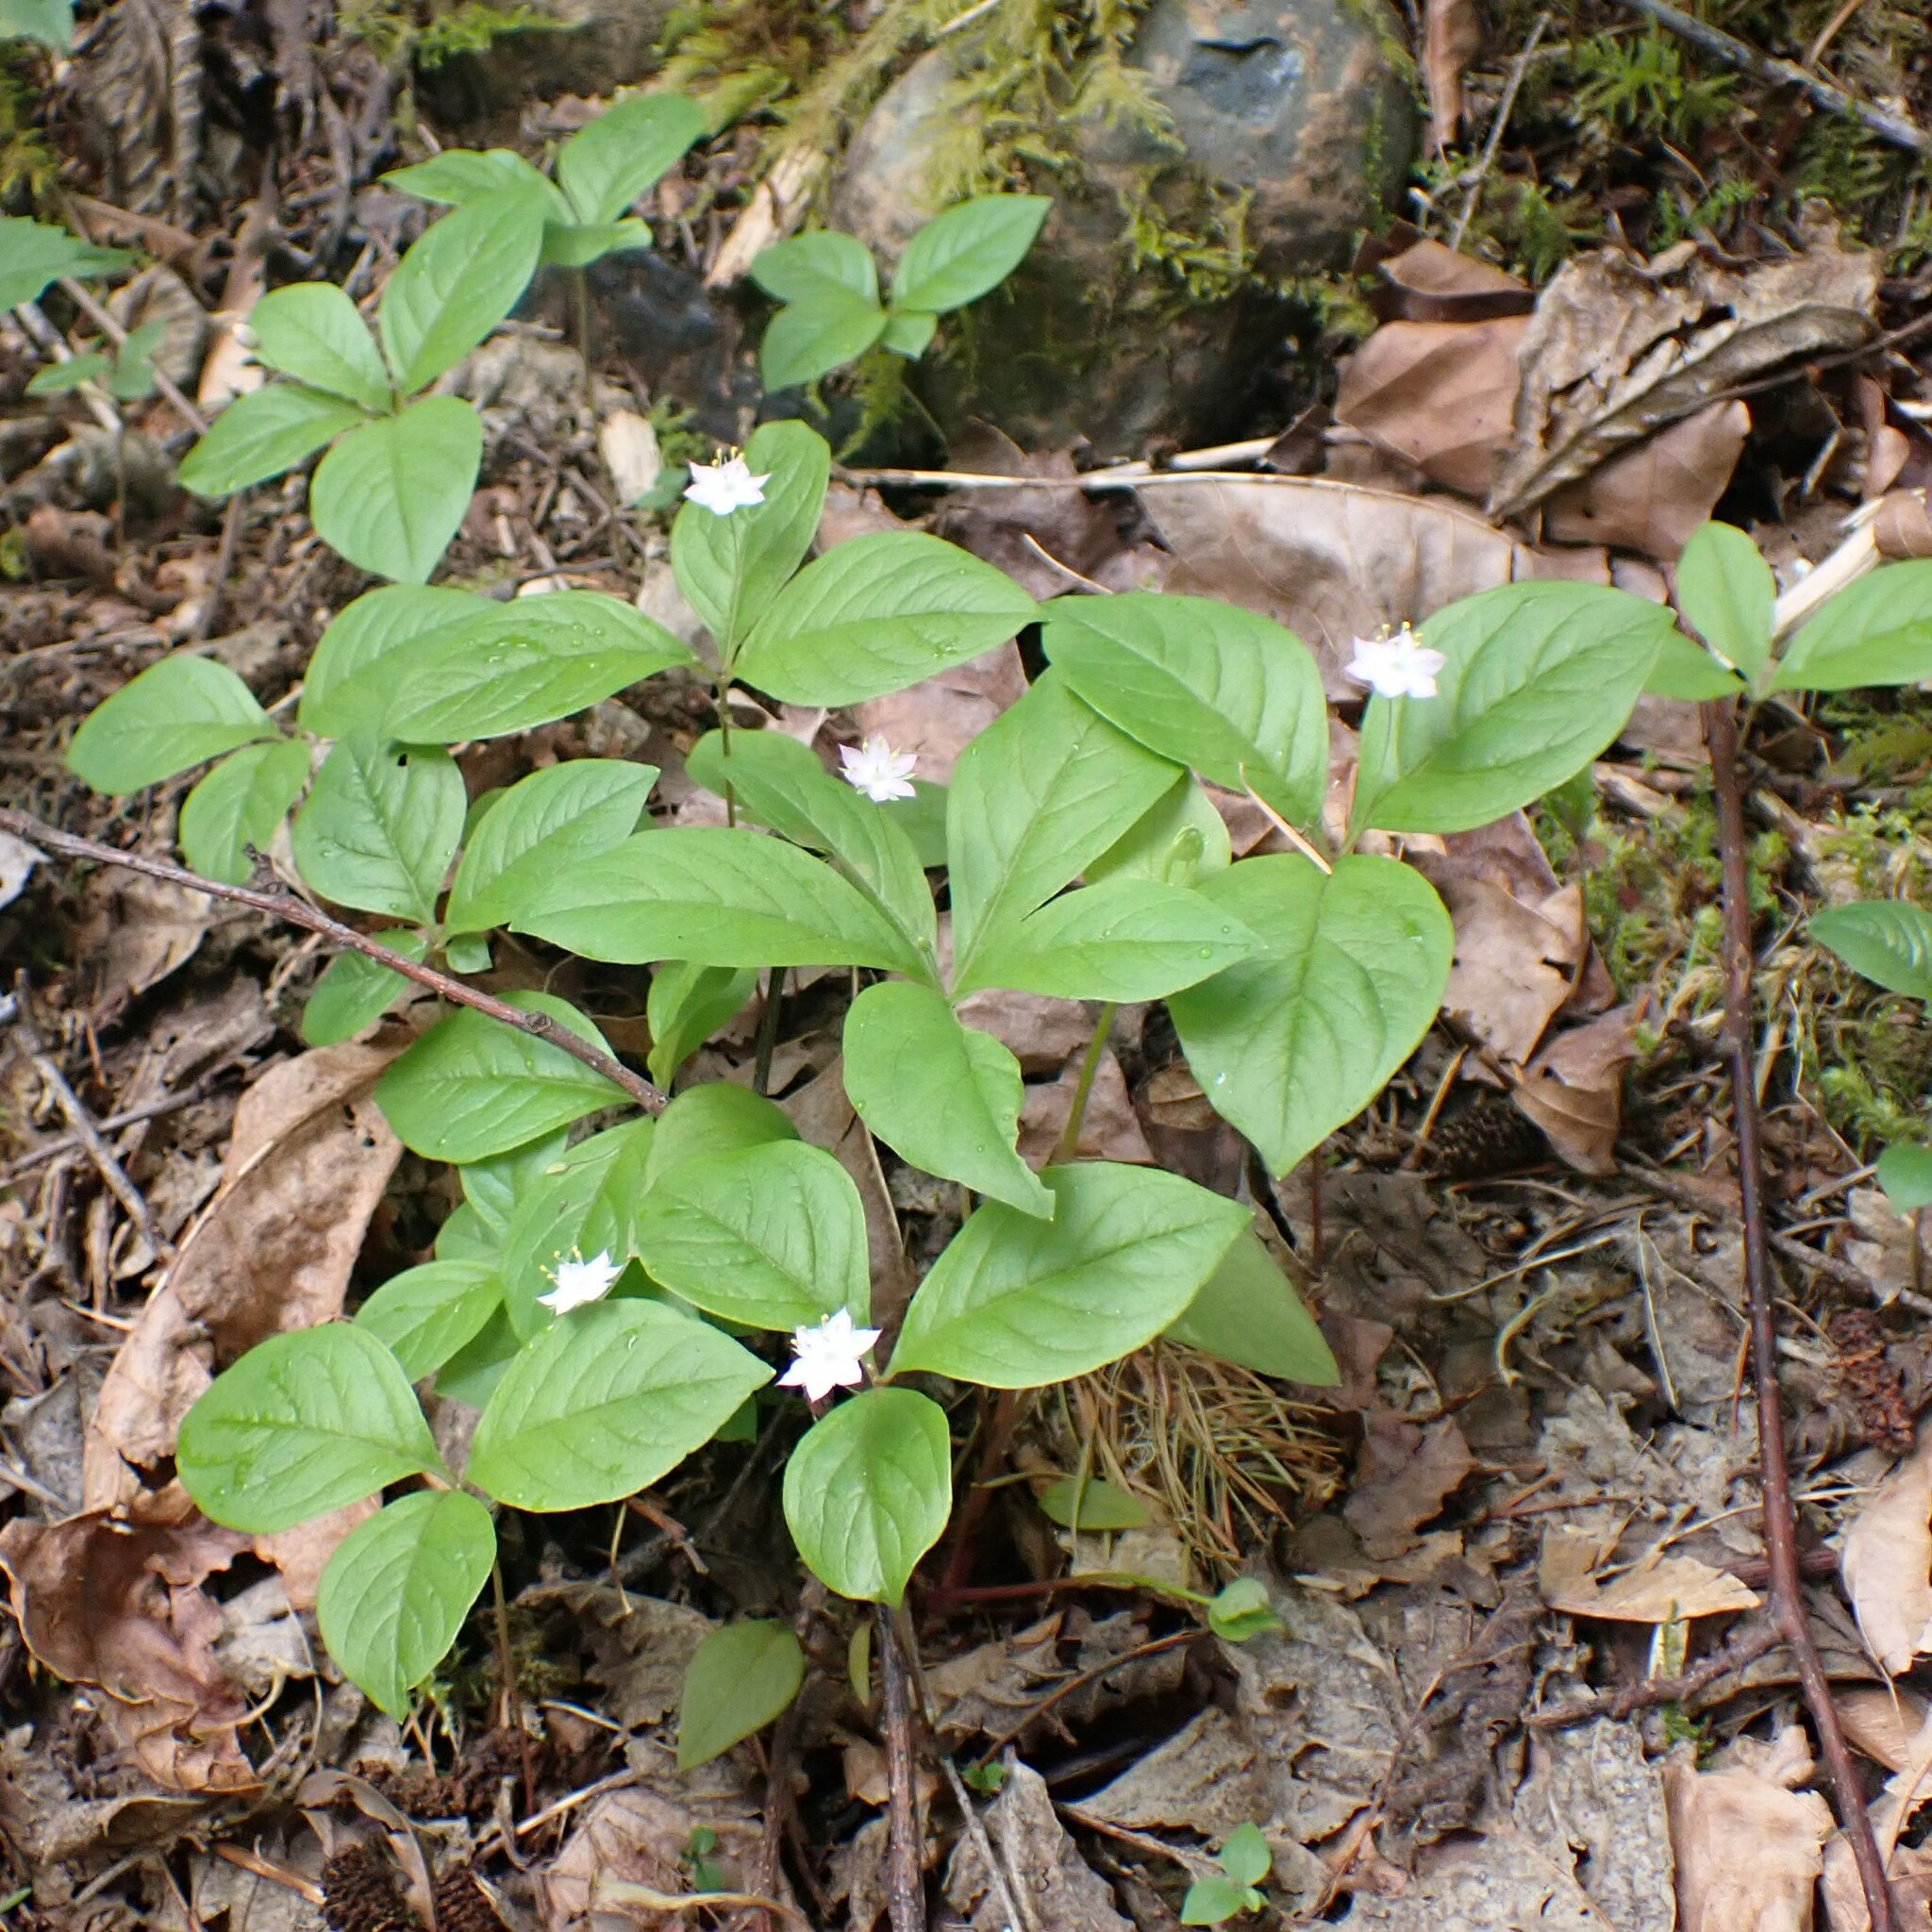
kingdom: Plantae
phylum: Tracheophyta
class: Magnoliopsida
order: Ericales
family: Primulaceae
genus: Lysimachia
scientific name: Lysimachia latifolia
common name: Pacific starflower
